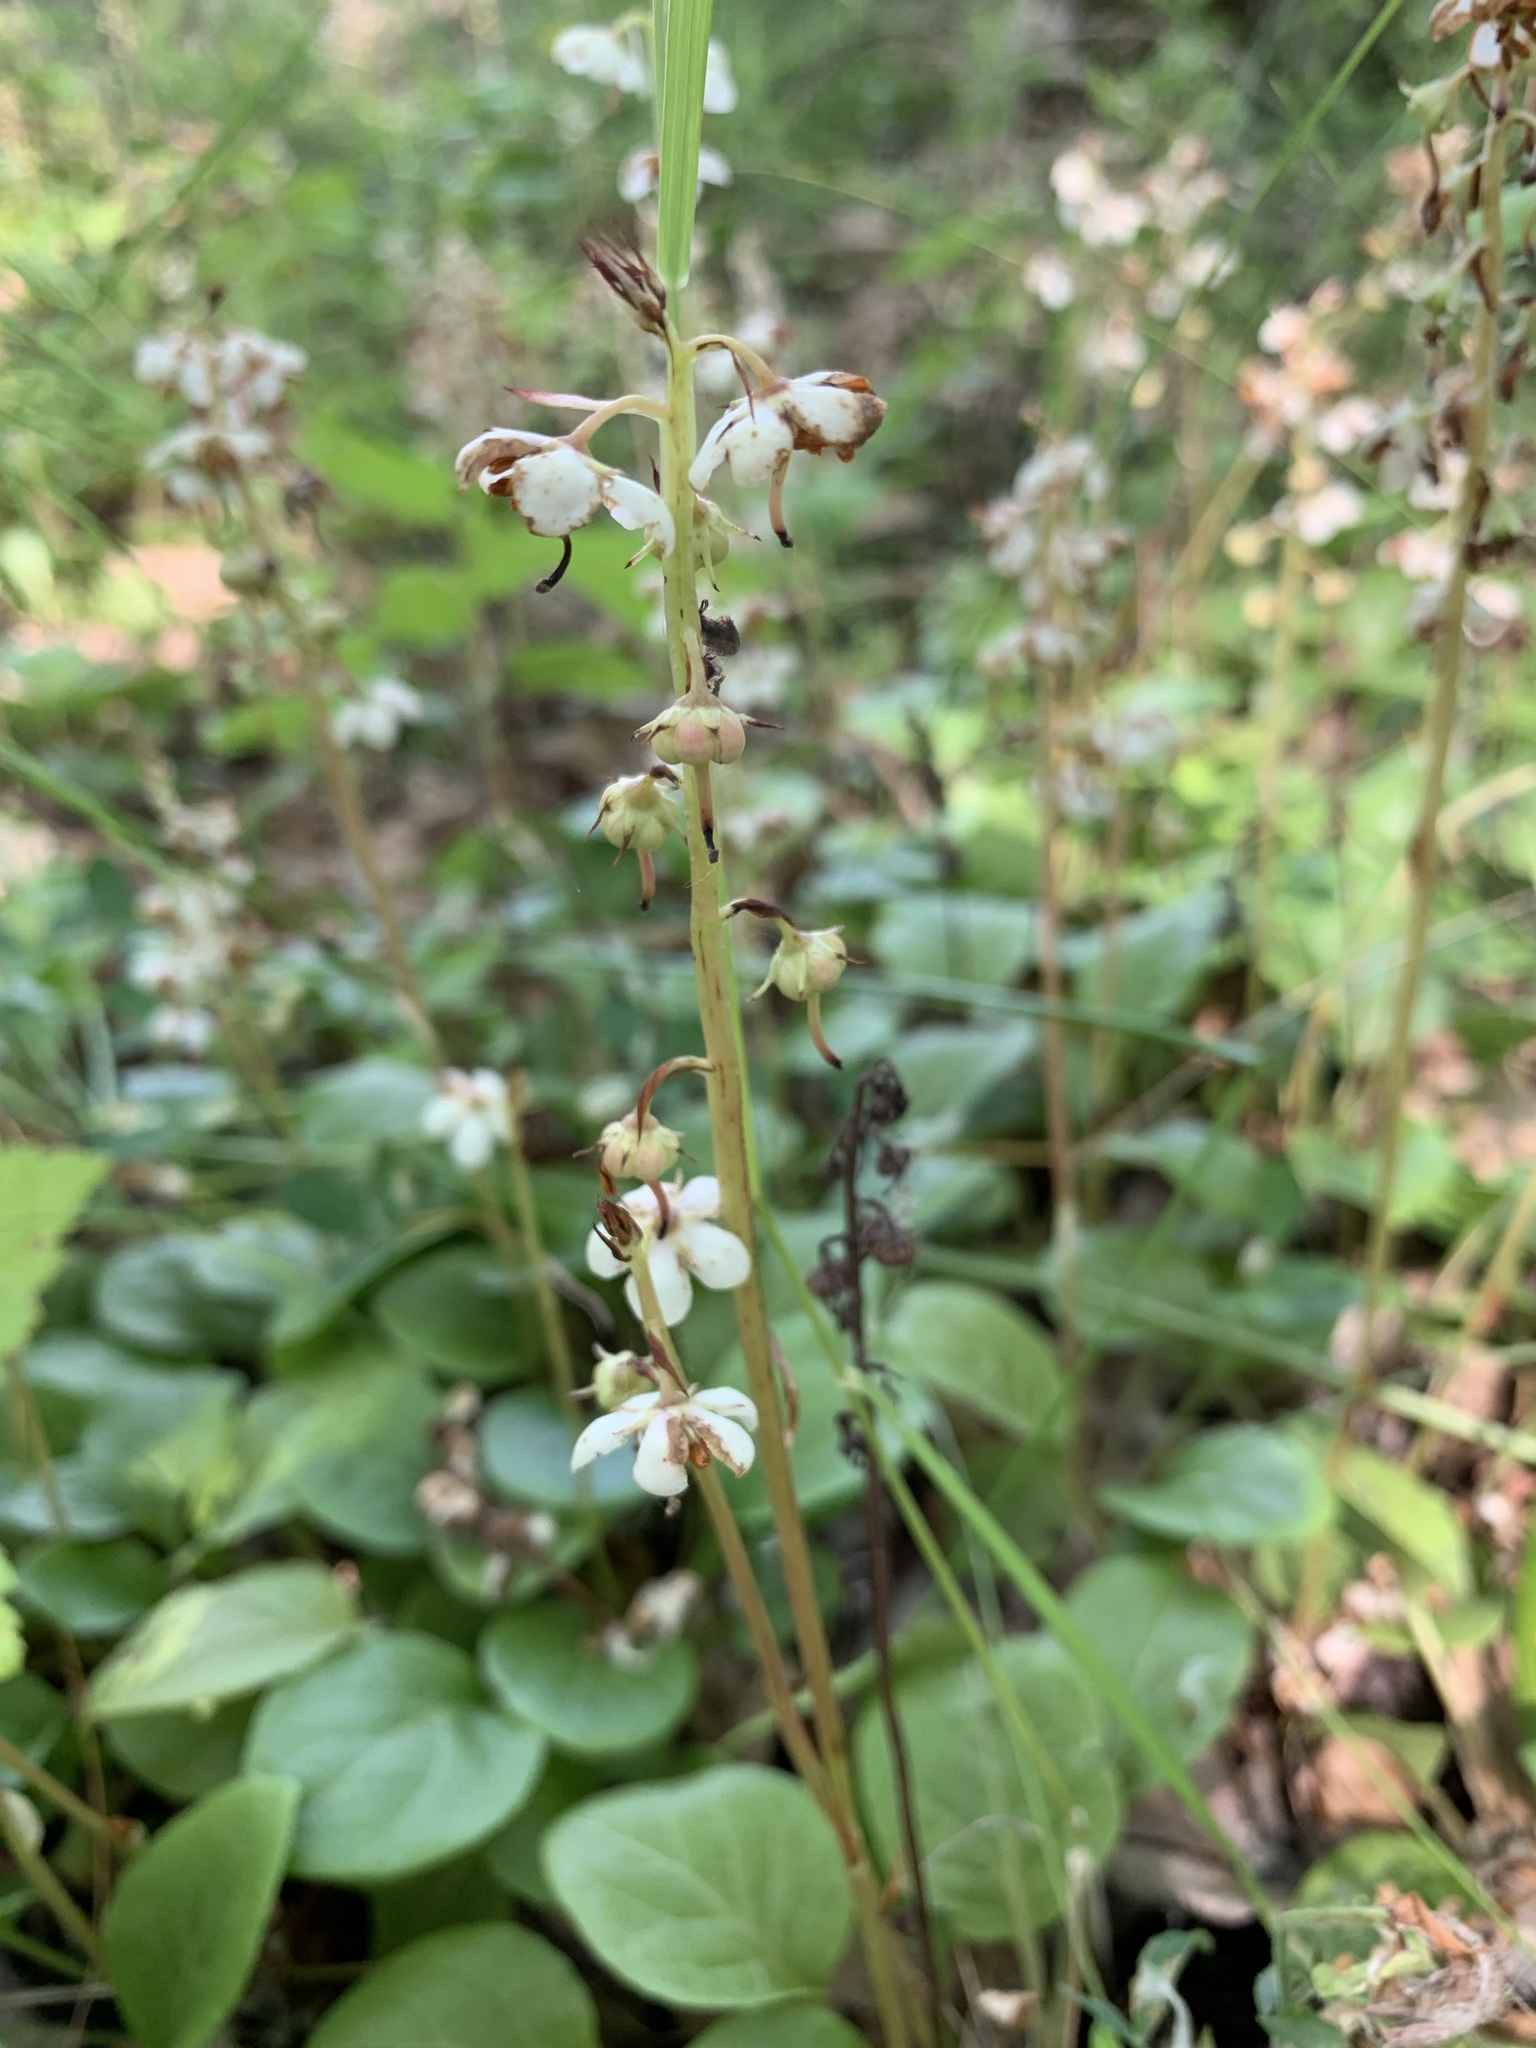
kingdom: Plantae
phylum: Tracheophyta
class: Magnoliopsida
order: Ericales
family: Ericaceae
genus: Pyrola
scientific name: Pyrola rotundifolia
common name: Round-leaved wintergreen
